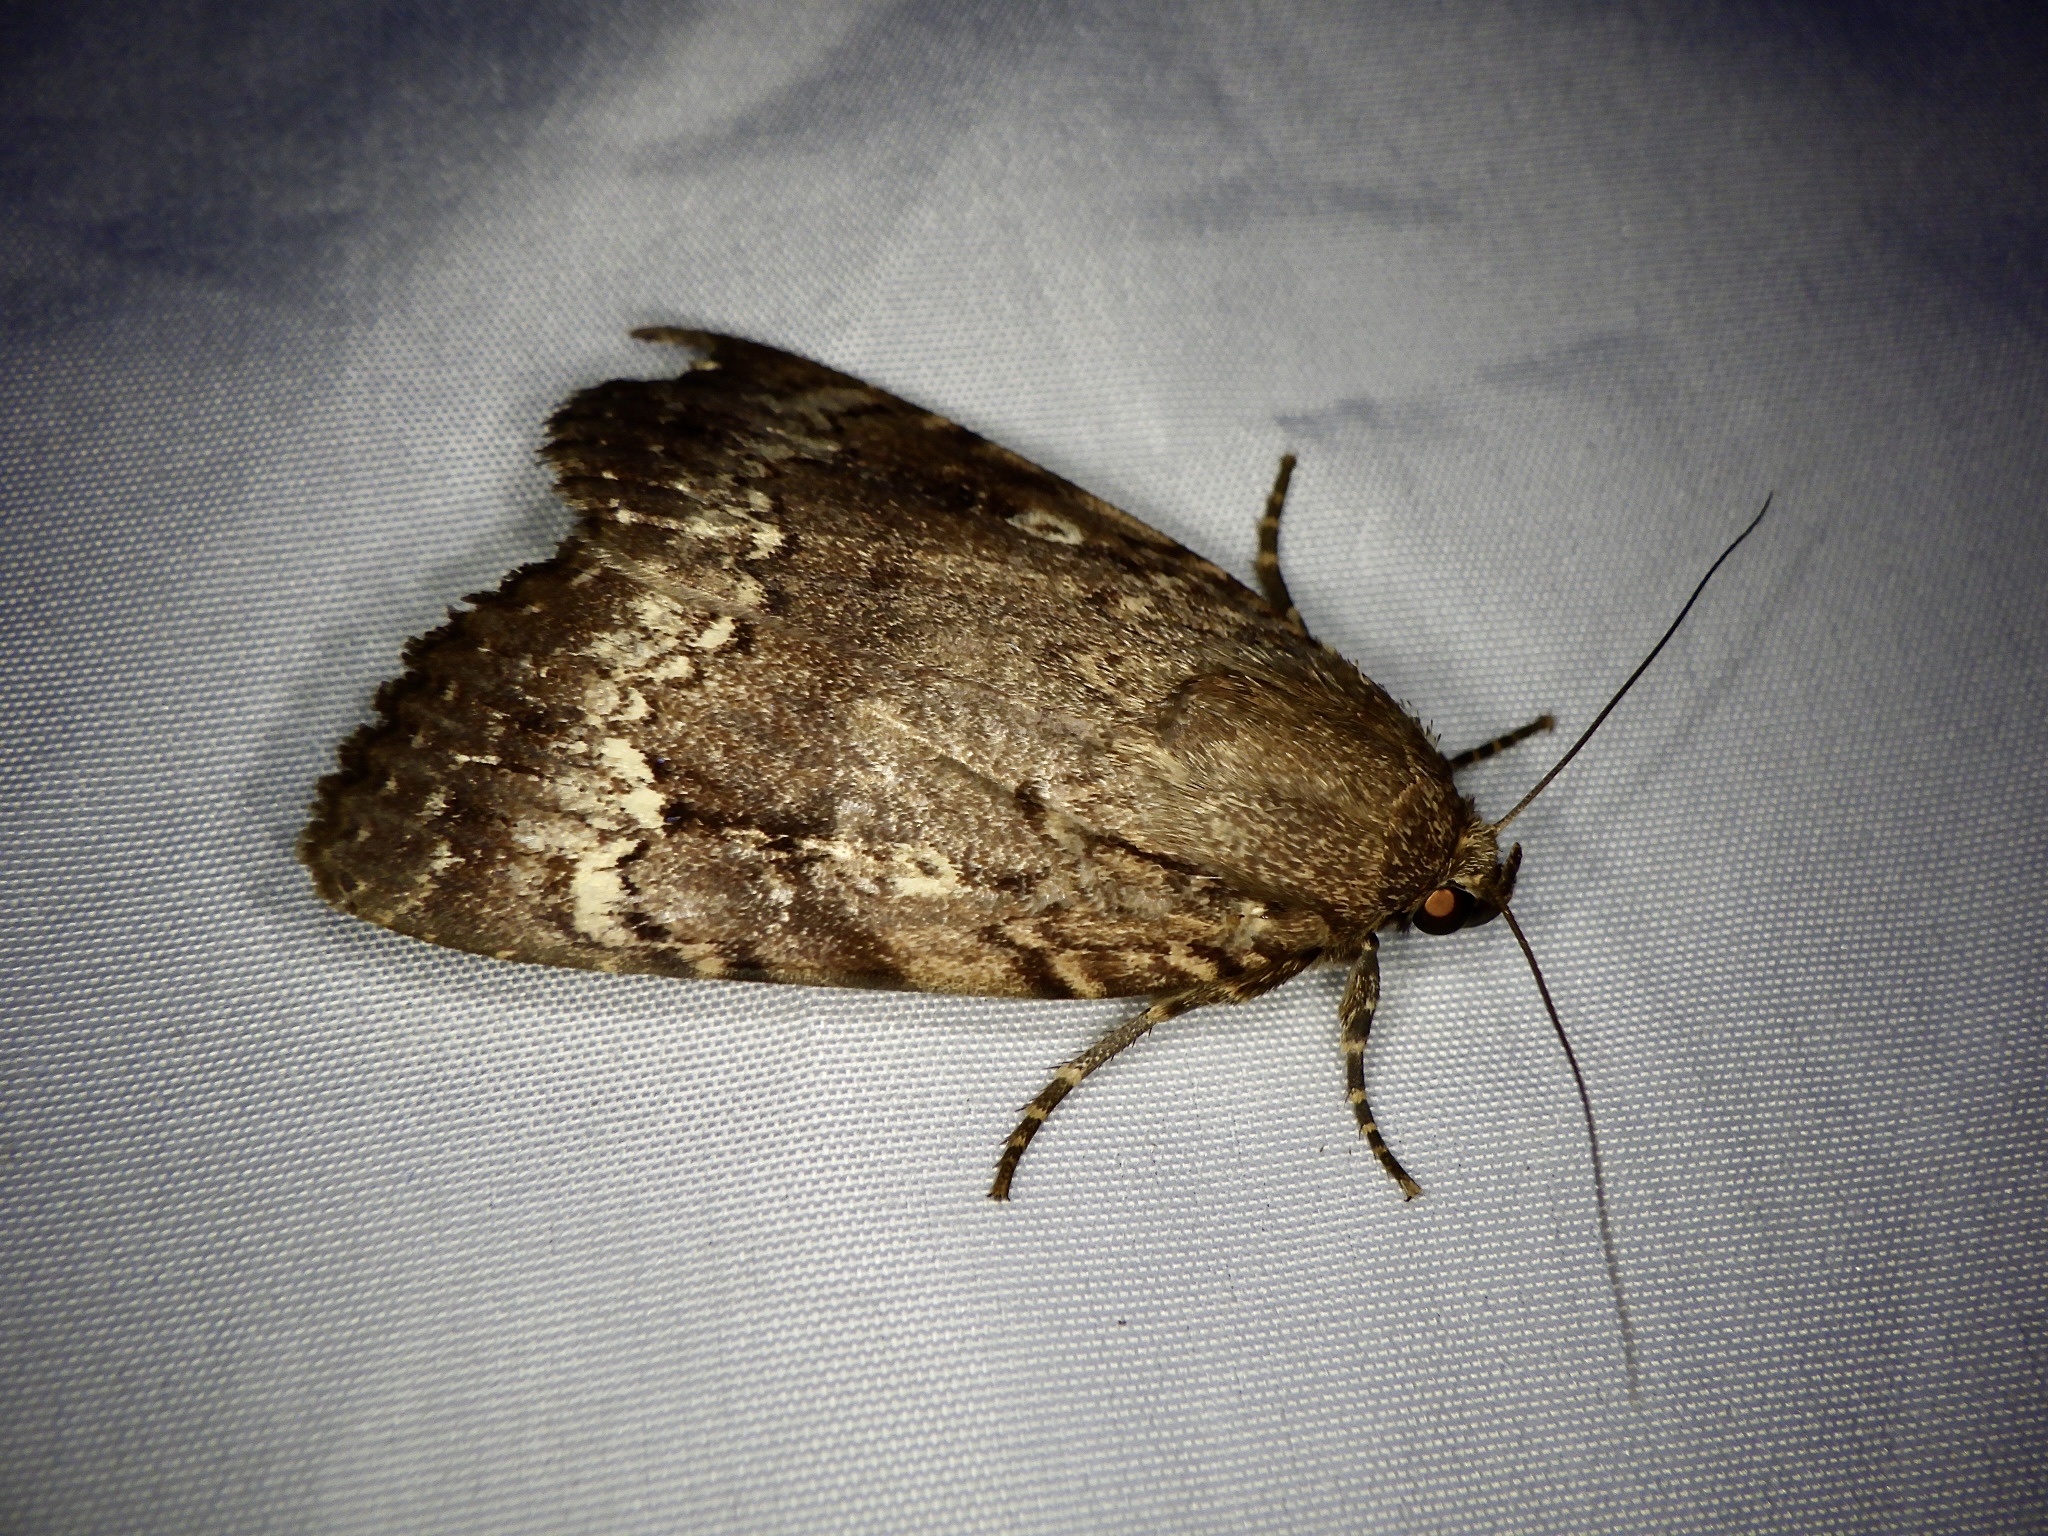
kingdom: Animalia
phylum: Arthropoda
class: Insecta
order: Lepidoptera
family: Noctuidae
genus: Amphipyra
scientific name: Amphipyra monolitha
